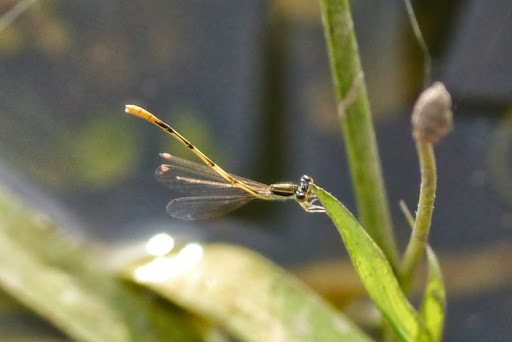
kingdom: Animalia
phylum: Arthropoda
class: Insecta
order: Odonata
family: Coenagrionidae
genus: Ischnura
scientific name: Ischnura hastata
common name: Citrine forktail
